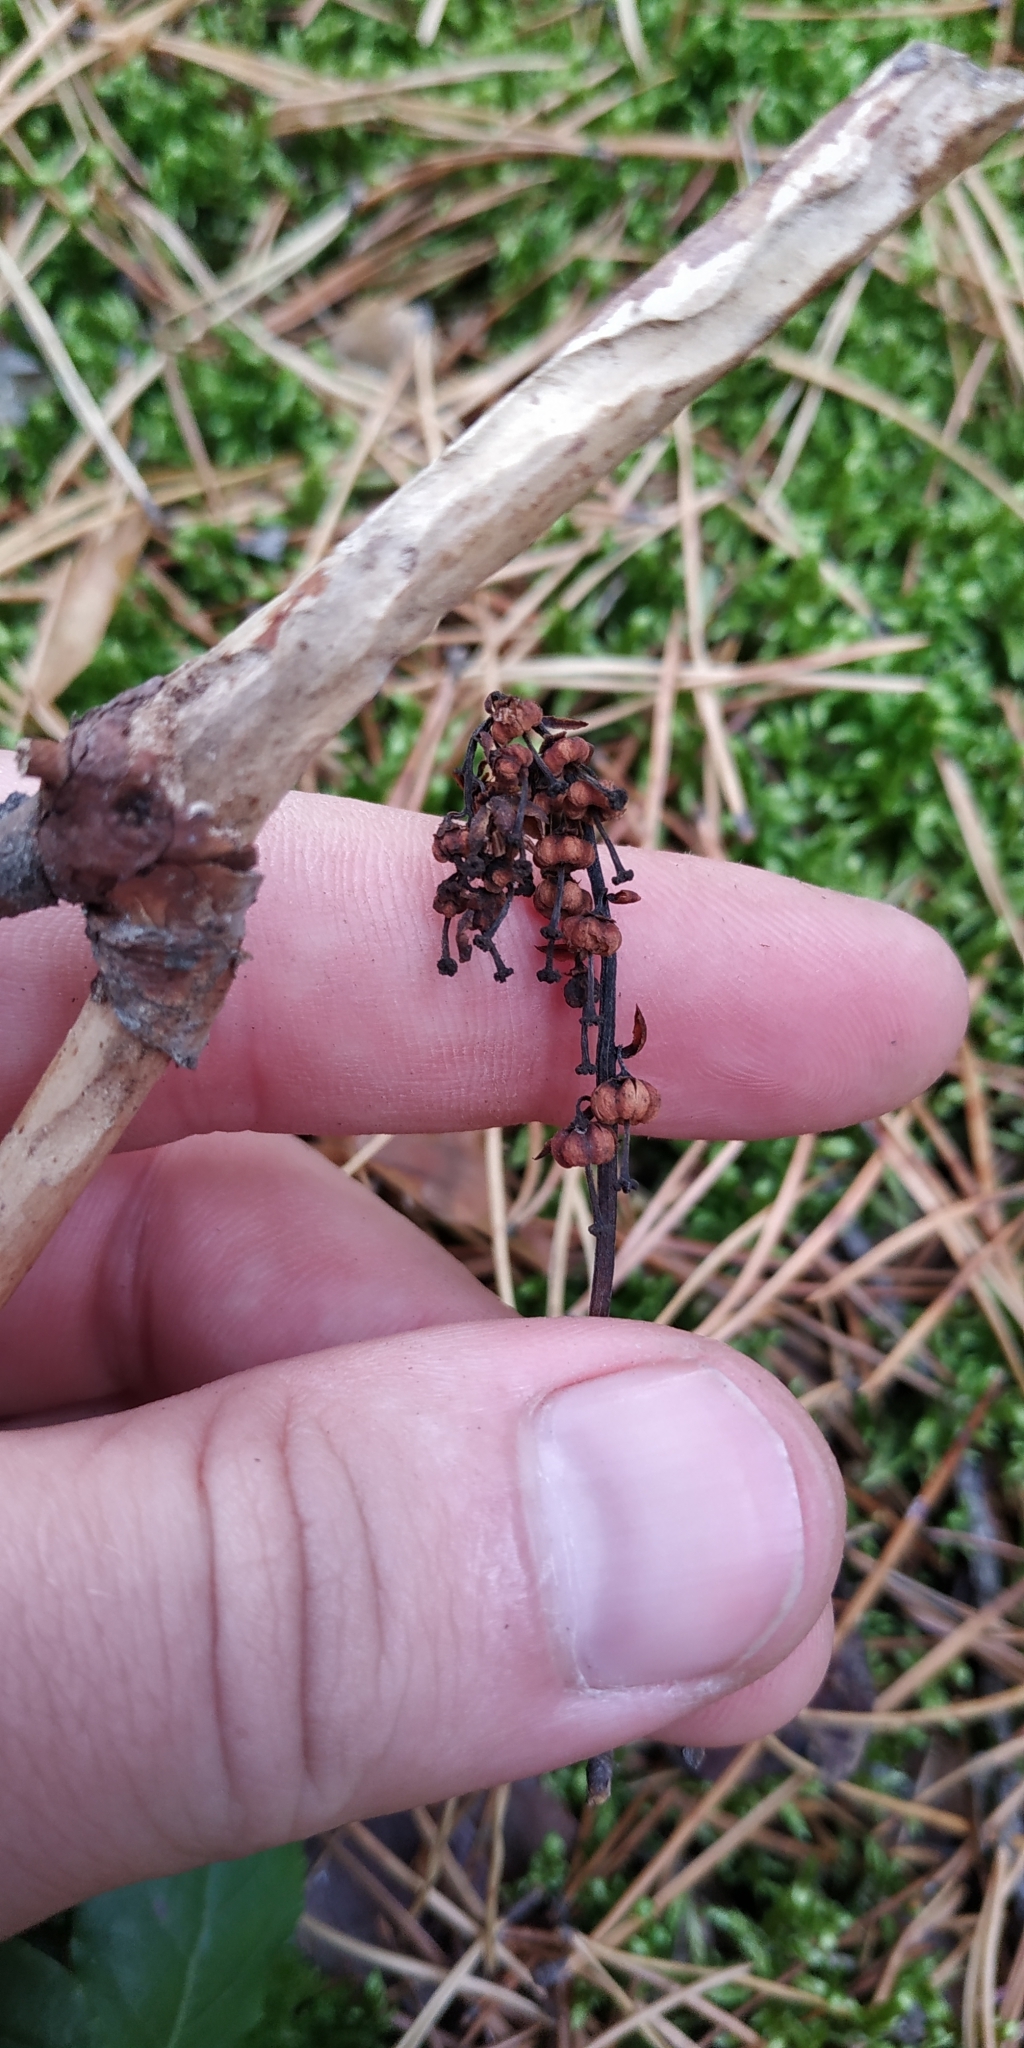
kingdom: Plantae
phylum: Tracheophyta
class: Magnoliopsida
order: Ericales
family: Ericaceae
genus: Orthilia
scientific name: Orthilia secunda
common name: One-sided orthilia
